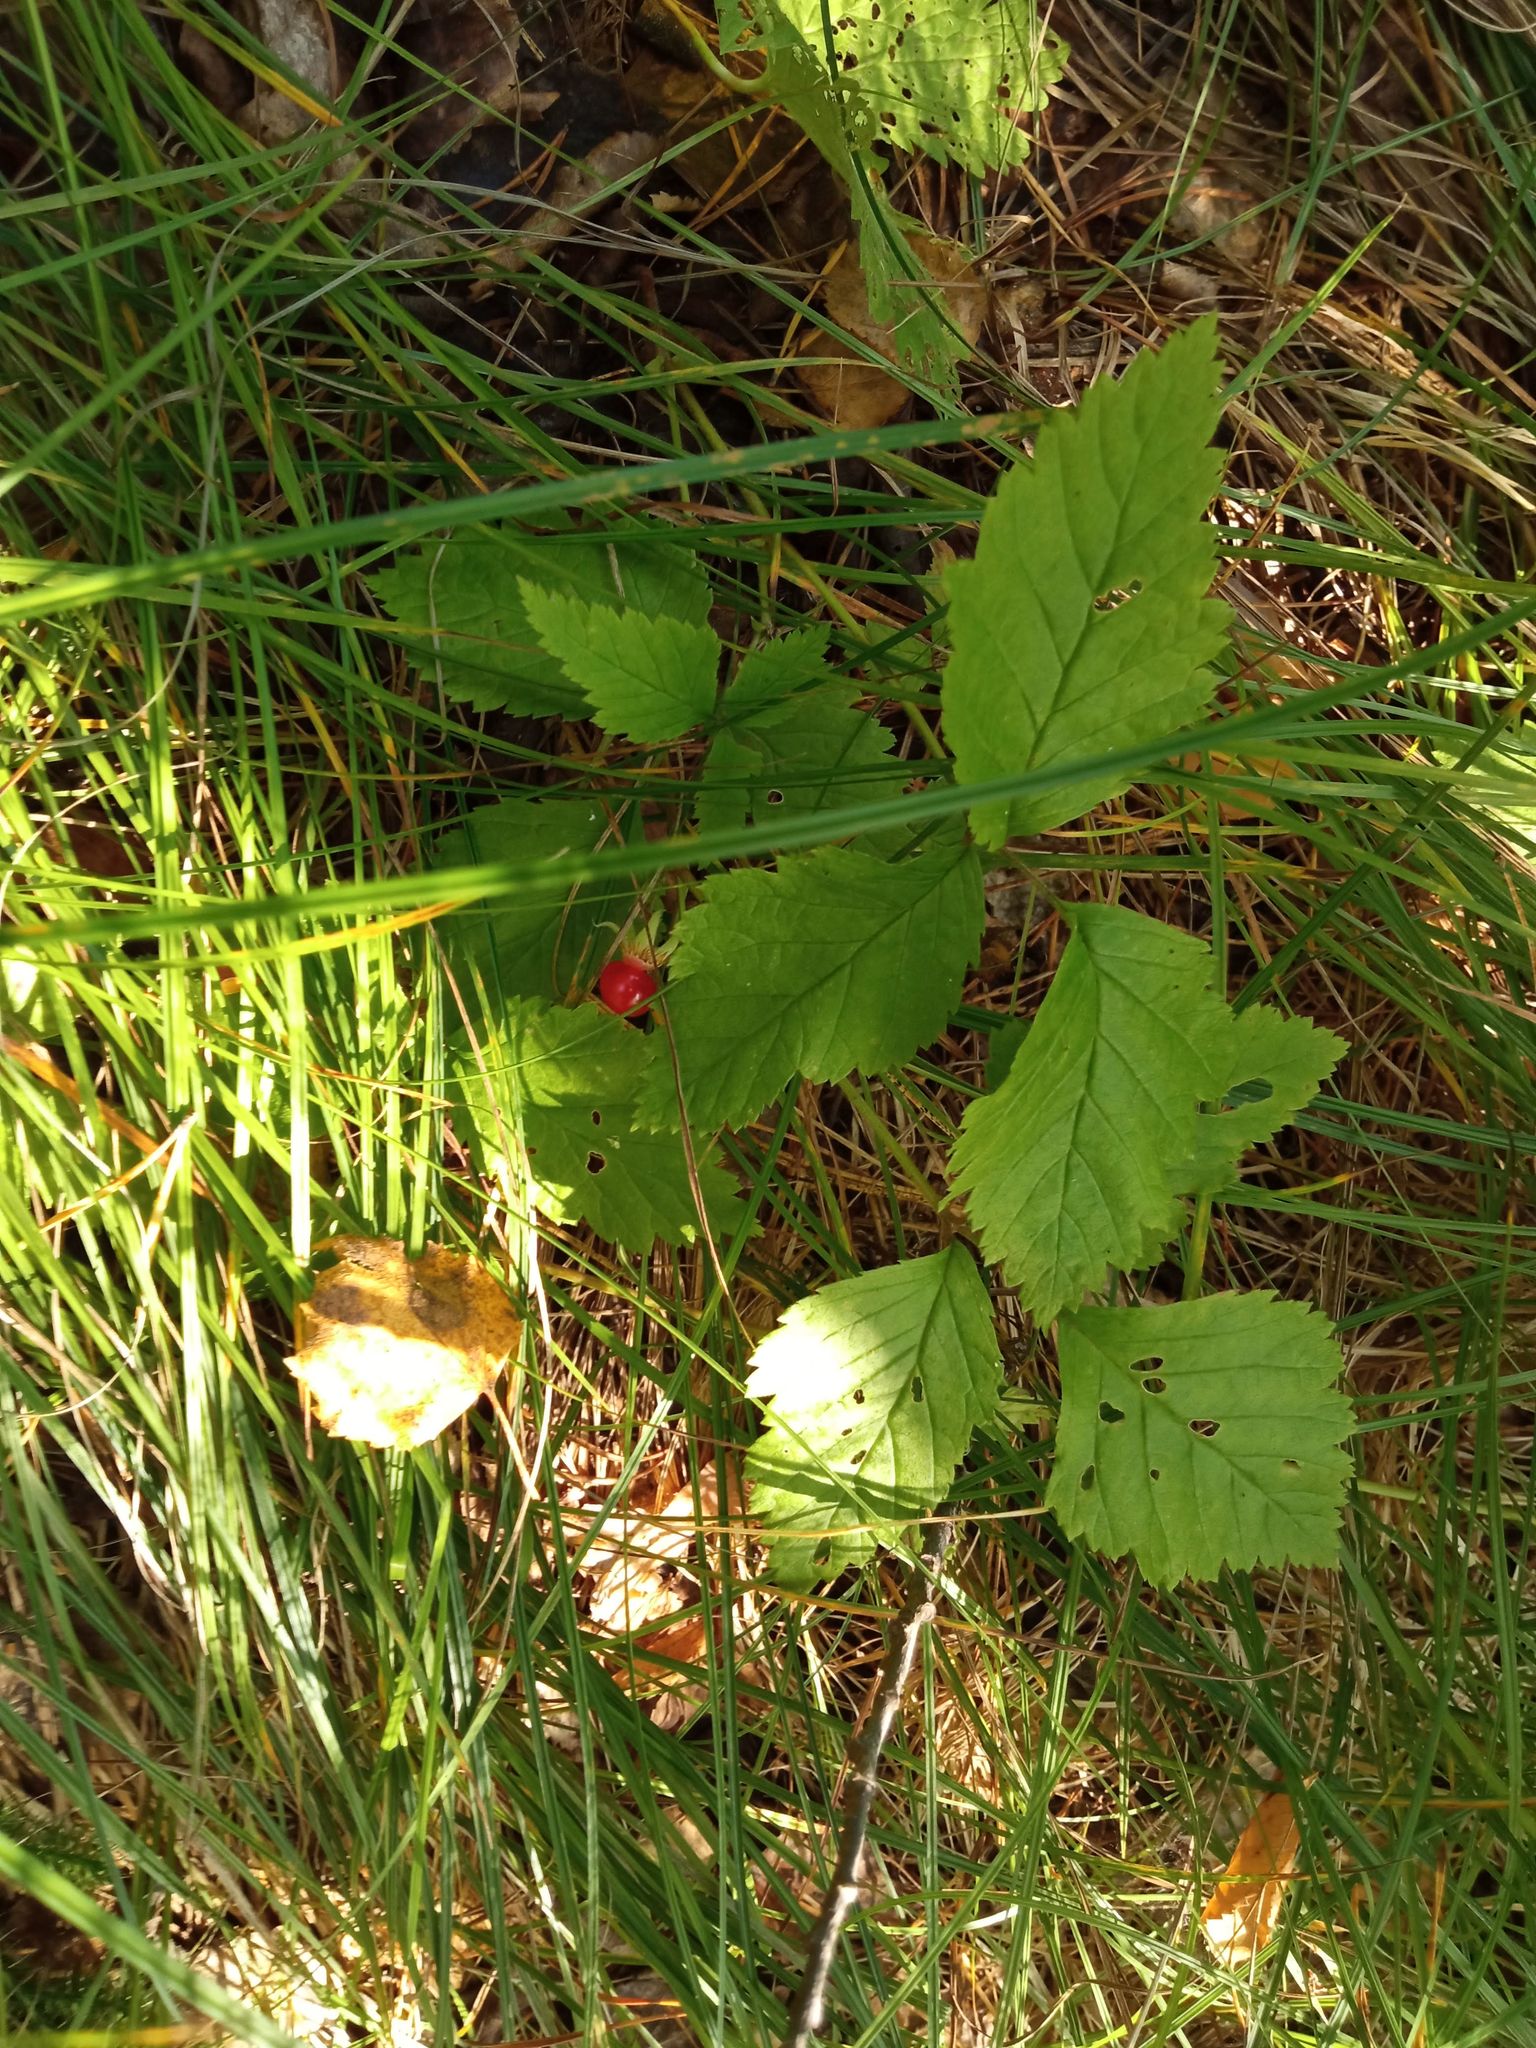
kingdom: Plantae
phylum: Tracheophyta
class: Magnoliopsida
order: Rosales
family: Rosaceae
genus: Rubus
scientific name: Rubus saxatilis
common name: Stone bramble
